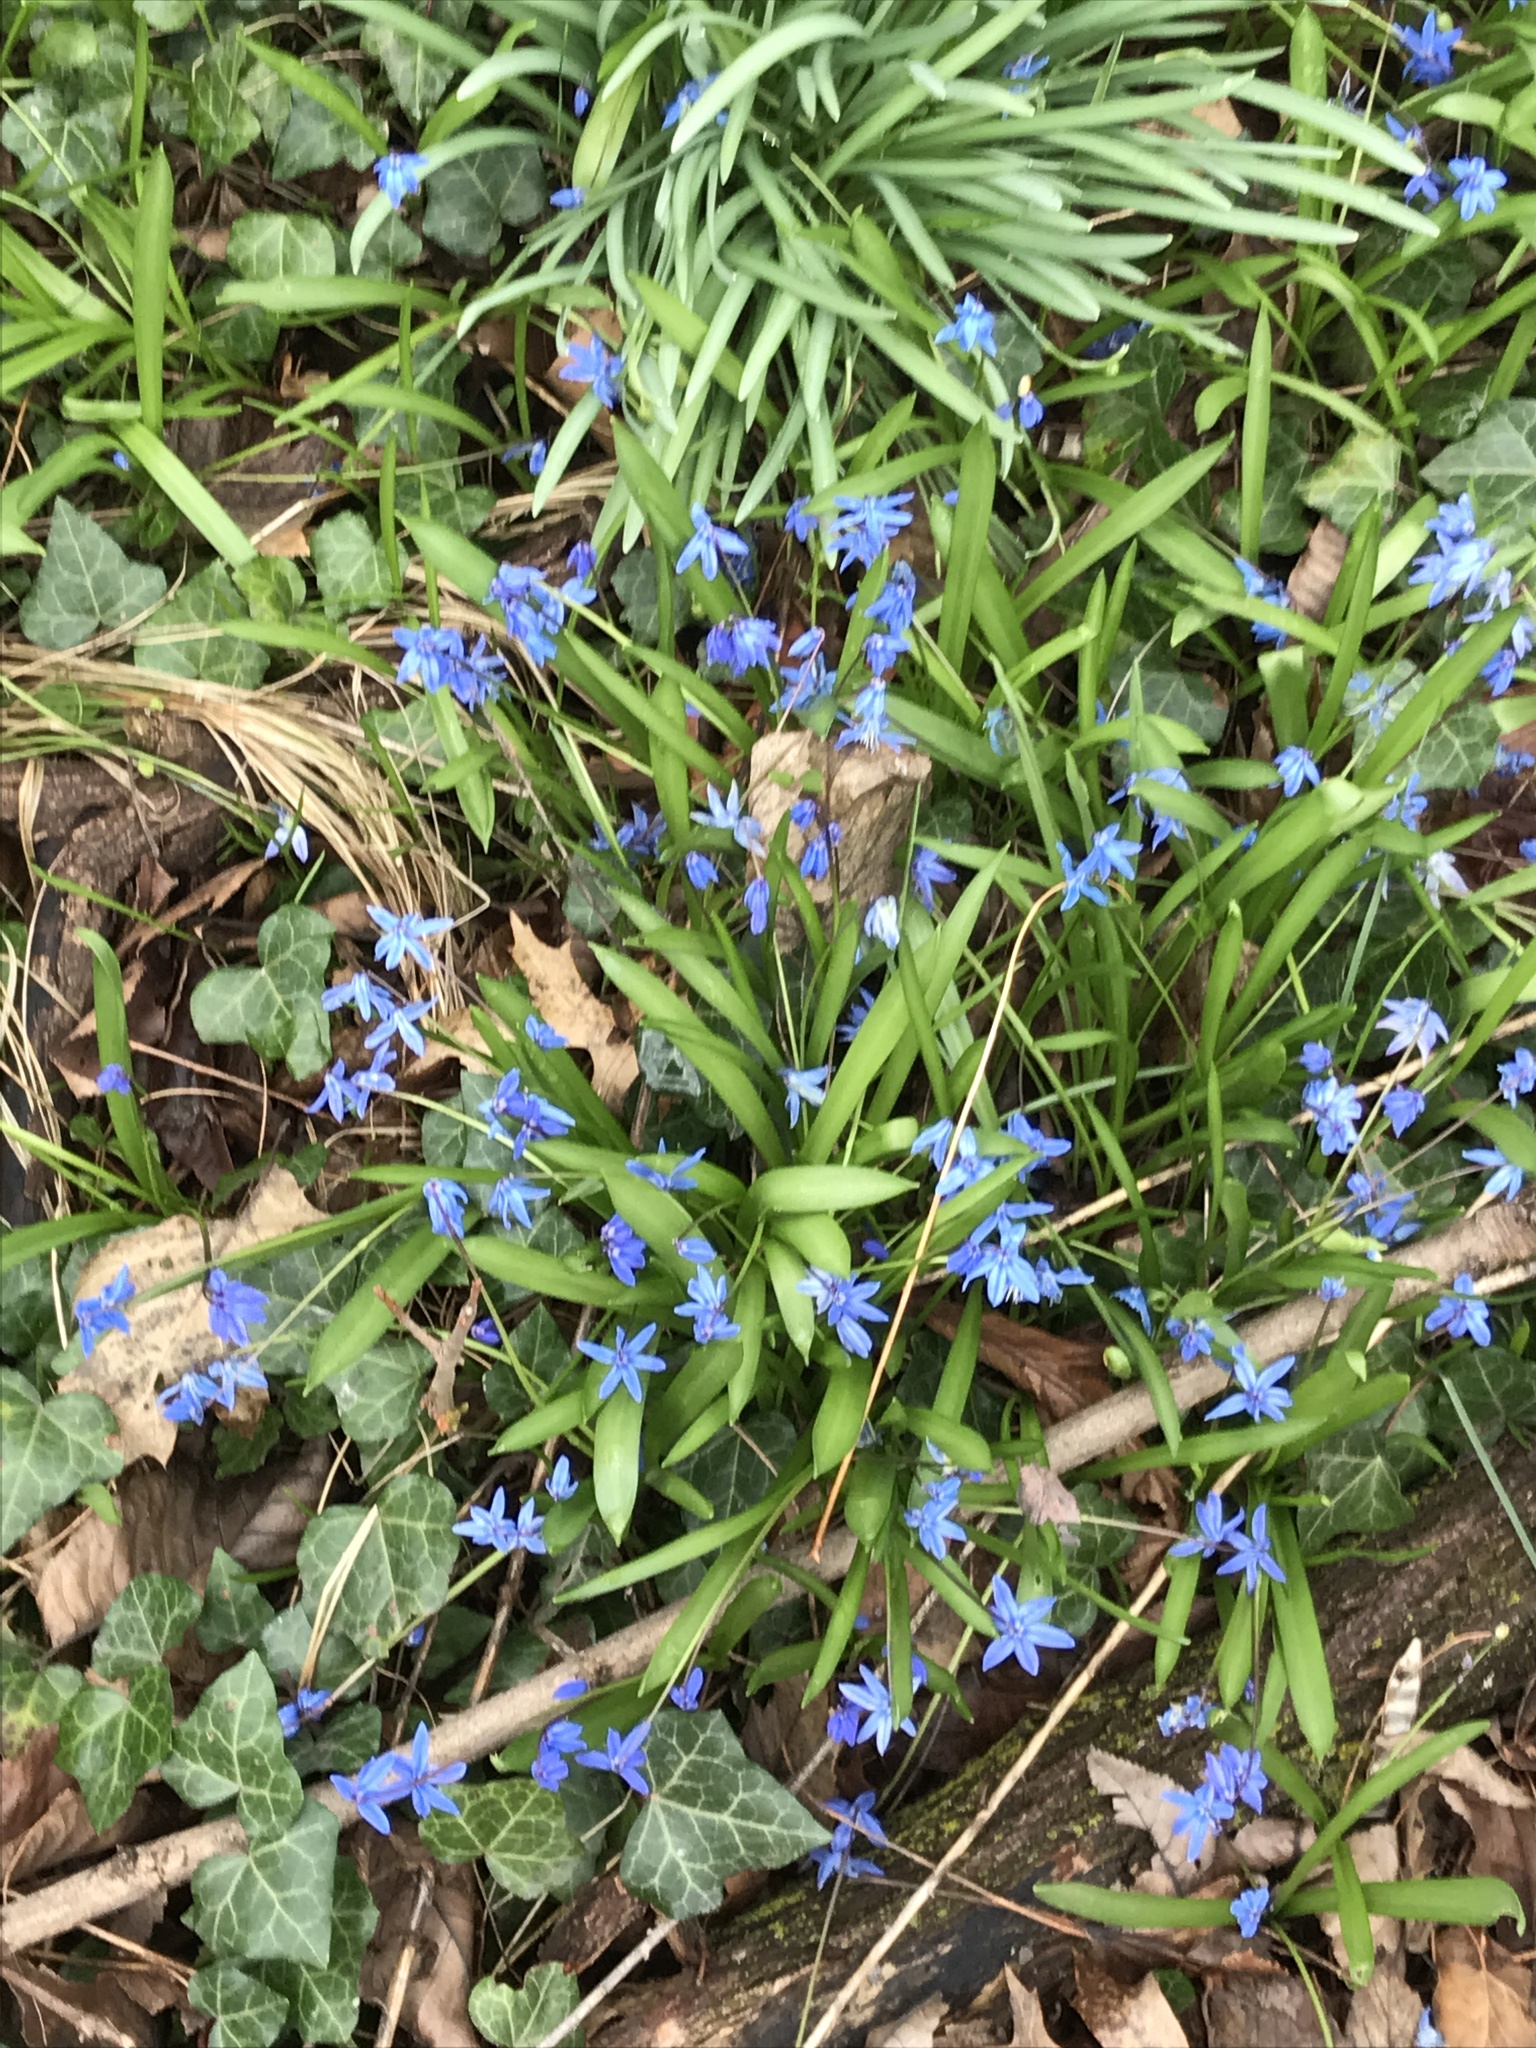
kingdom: Plantae
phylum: Tracheophyta
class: Liliopsida
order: Asparagales
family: Asparagaceae
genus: Scilla
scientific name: Scilla siberica
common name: Siberian squill
